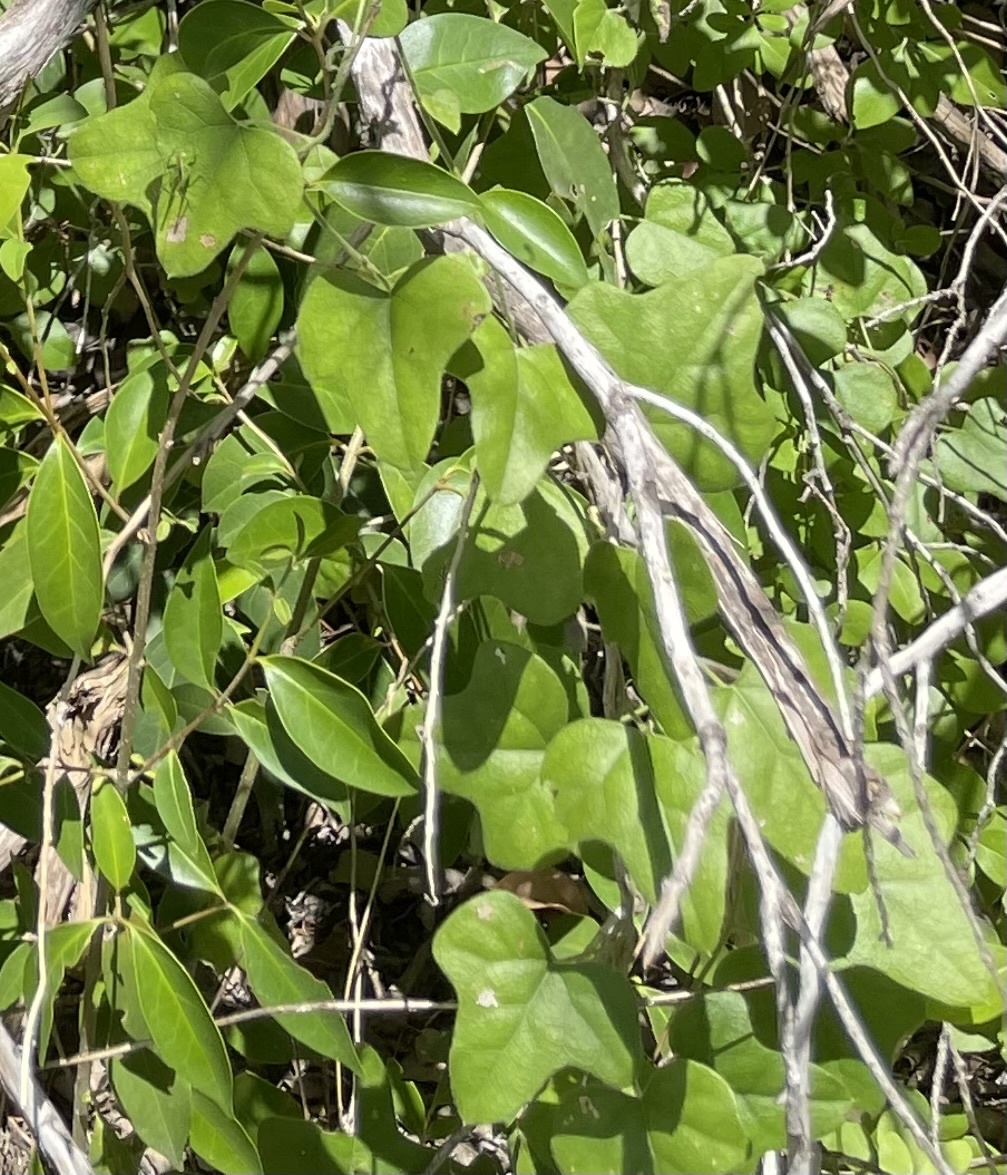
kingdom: Plantae
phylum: Tracheophyta
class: Magnoliopsida
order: Ranunculales
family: Menispermaceae
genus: Cocculus
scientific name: Cocculus carolinus
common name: Carolina moonseed
